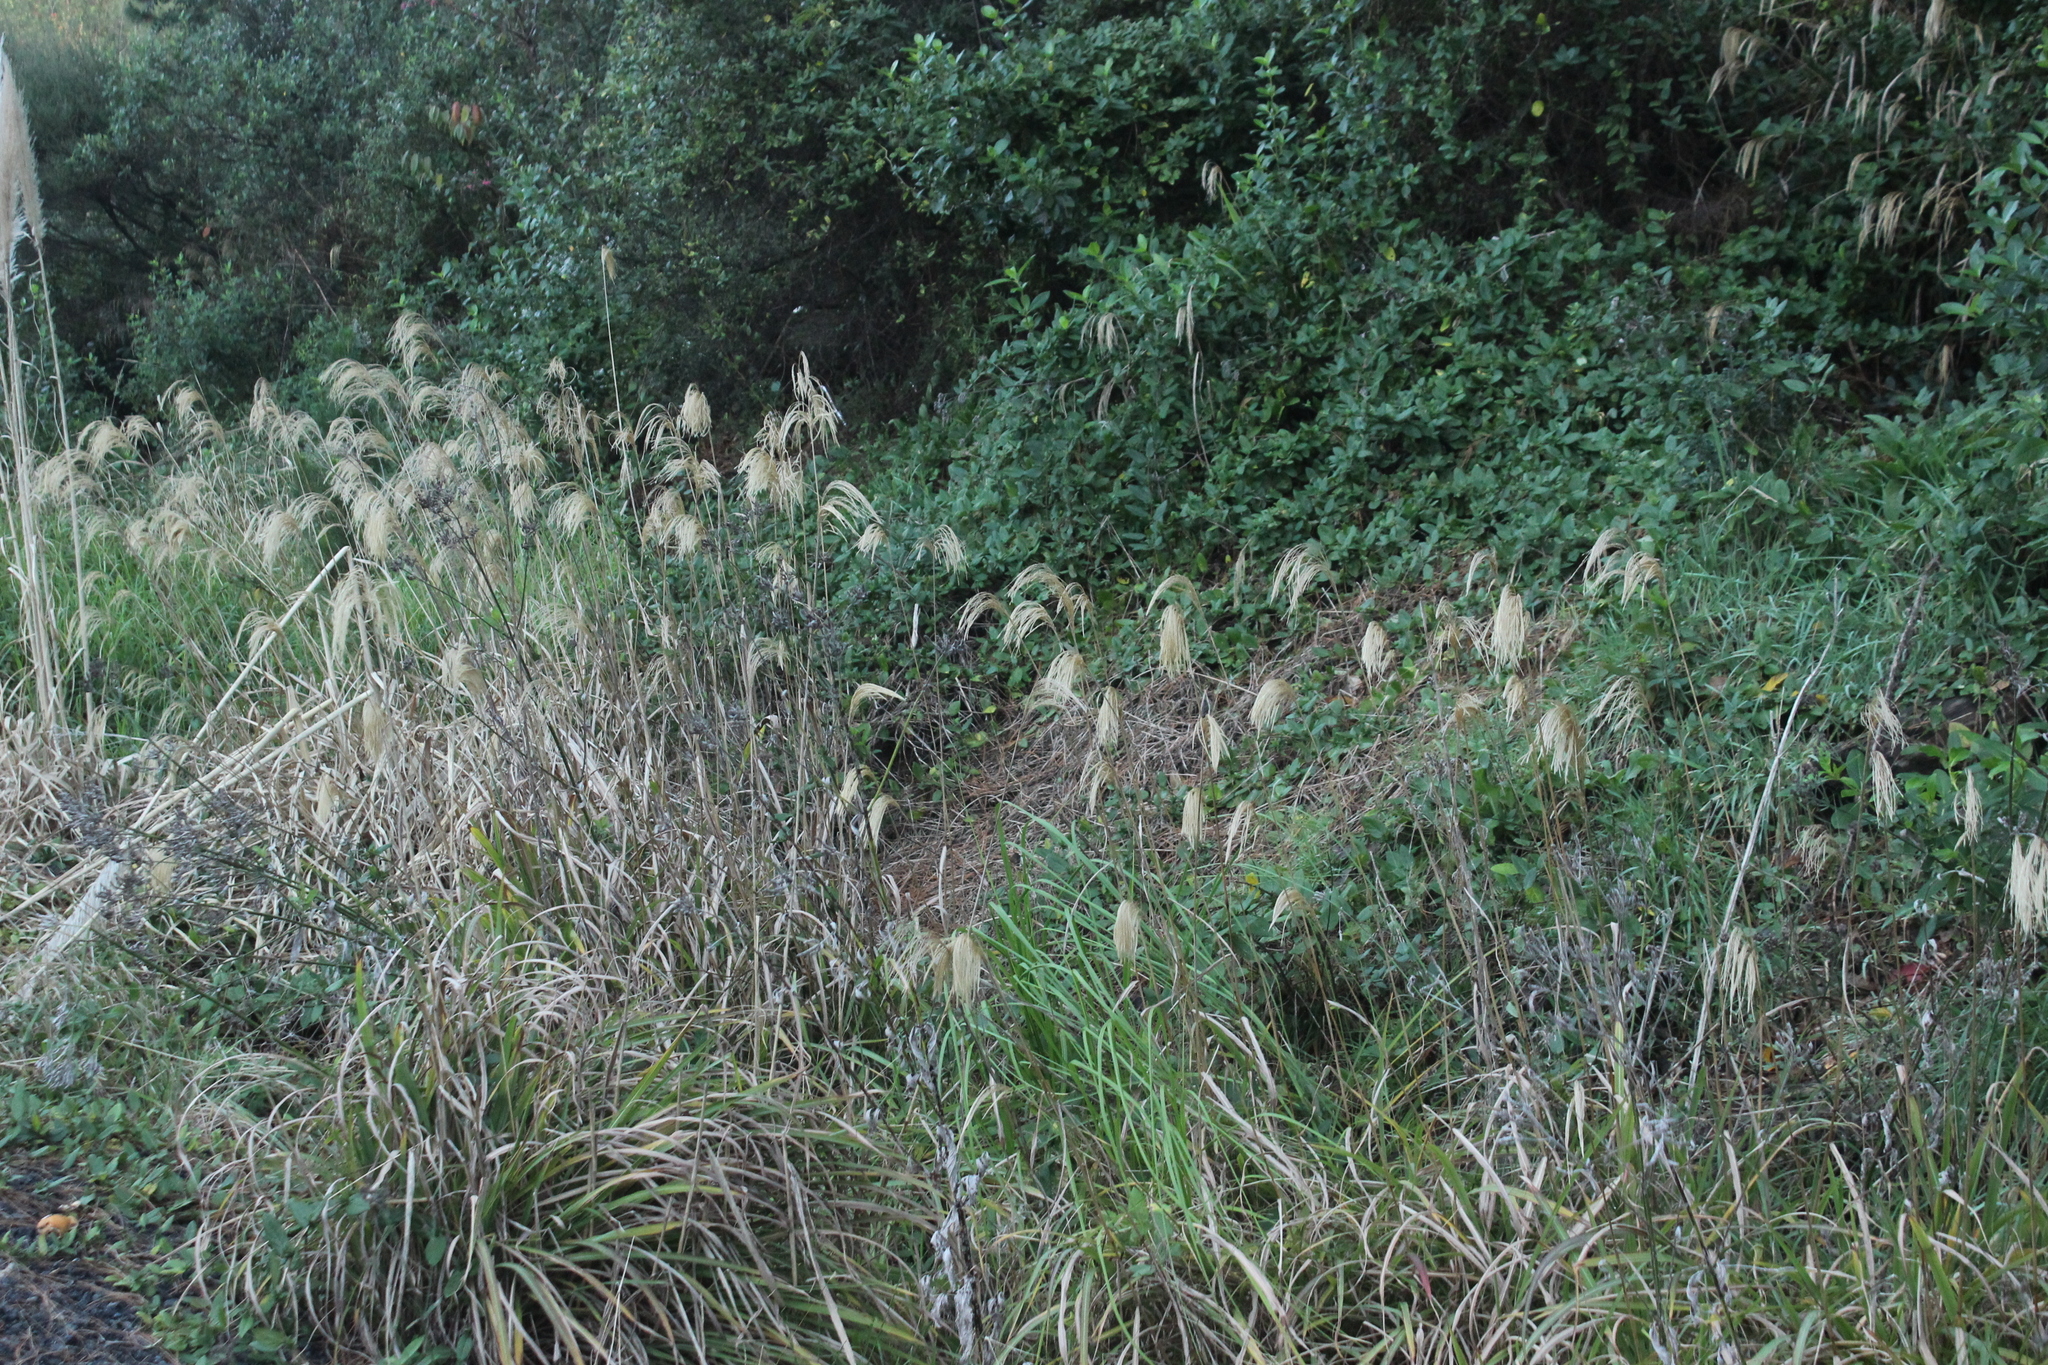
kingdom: Plantae
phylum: Tracheophyta
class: Liliopsida
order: Poales
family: Poaceae
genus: Miscanthus
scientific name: Miscanthus nepalensis
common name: Nepal silver grass
